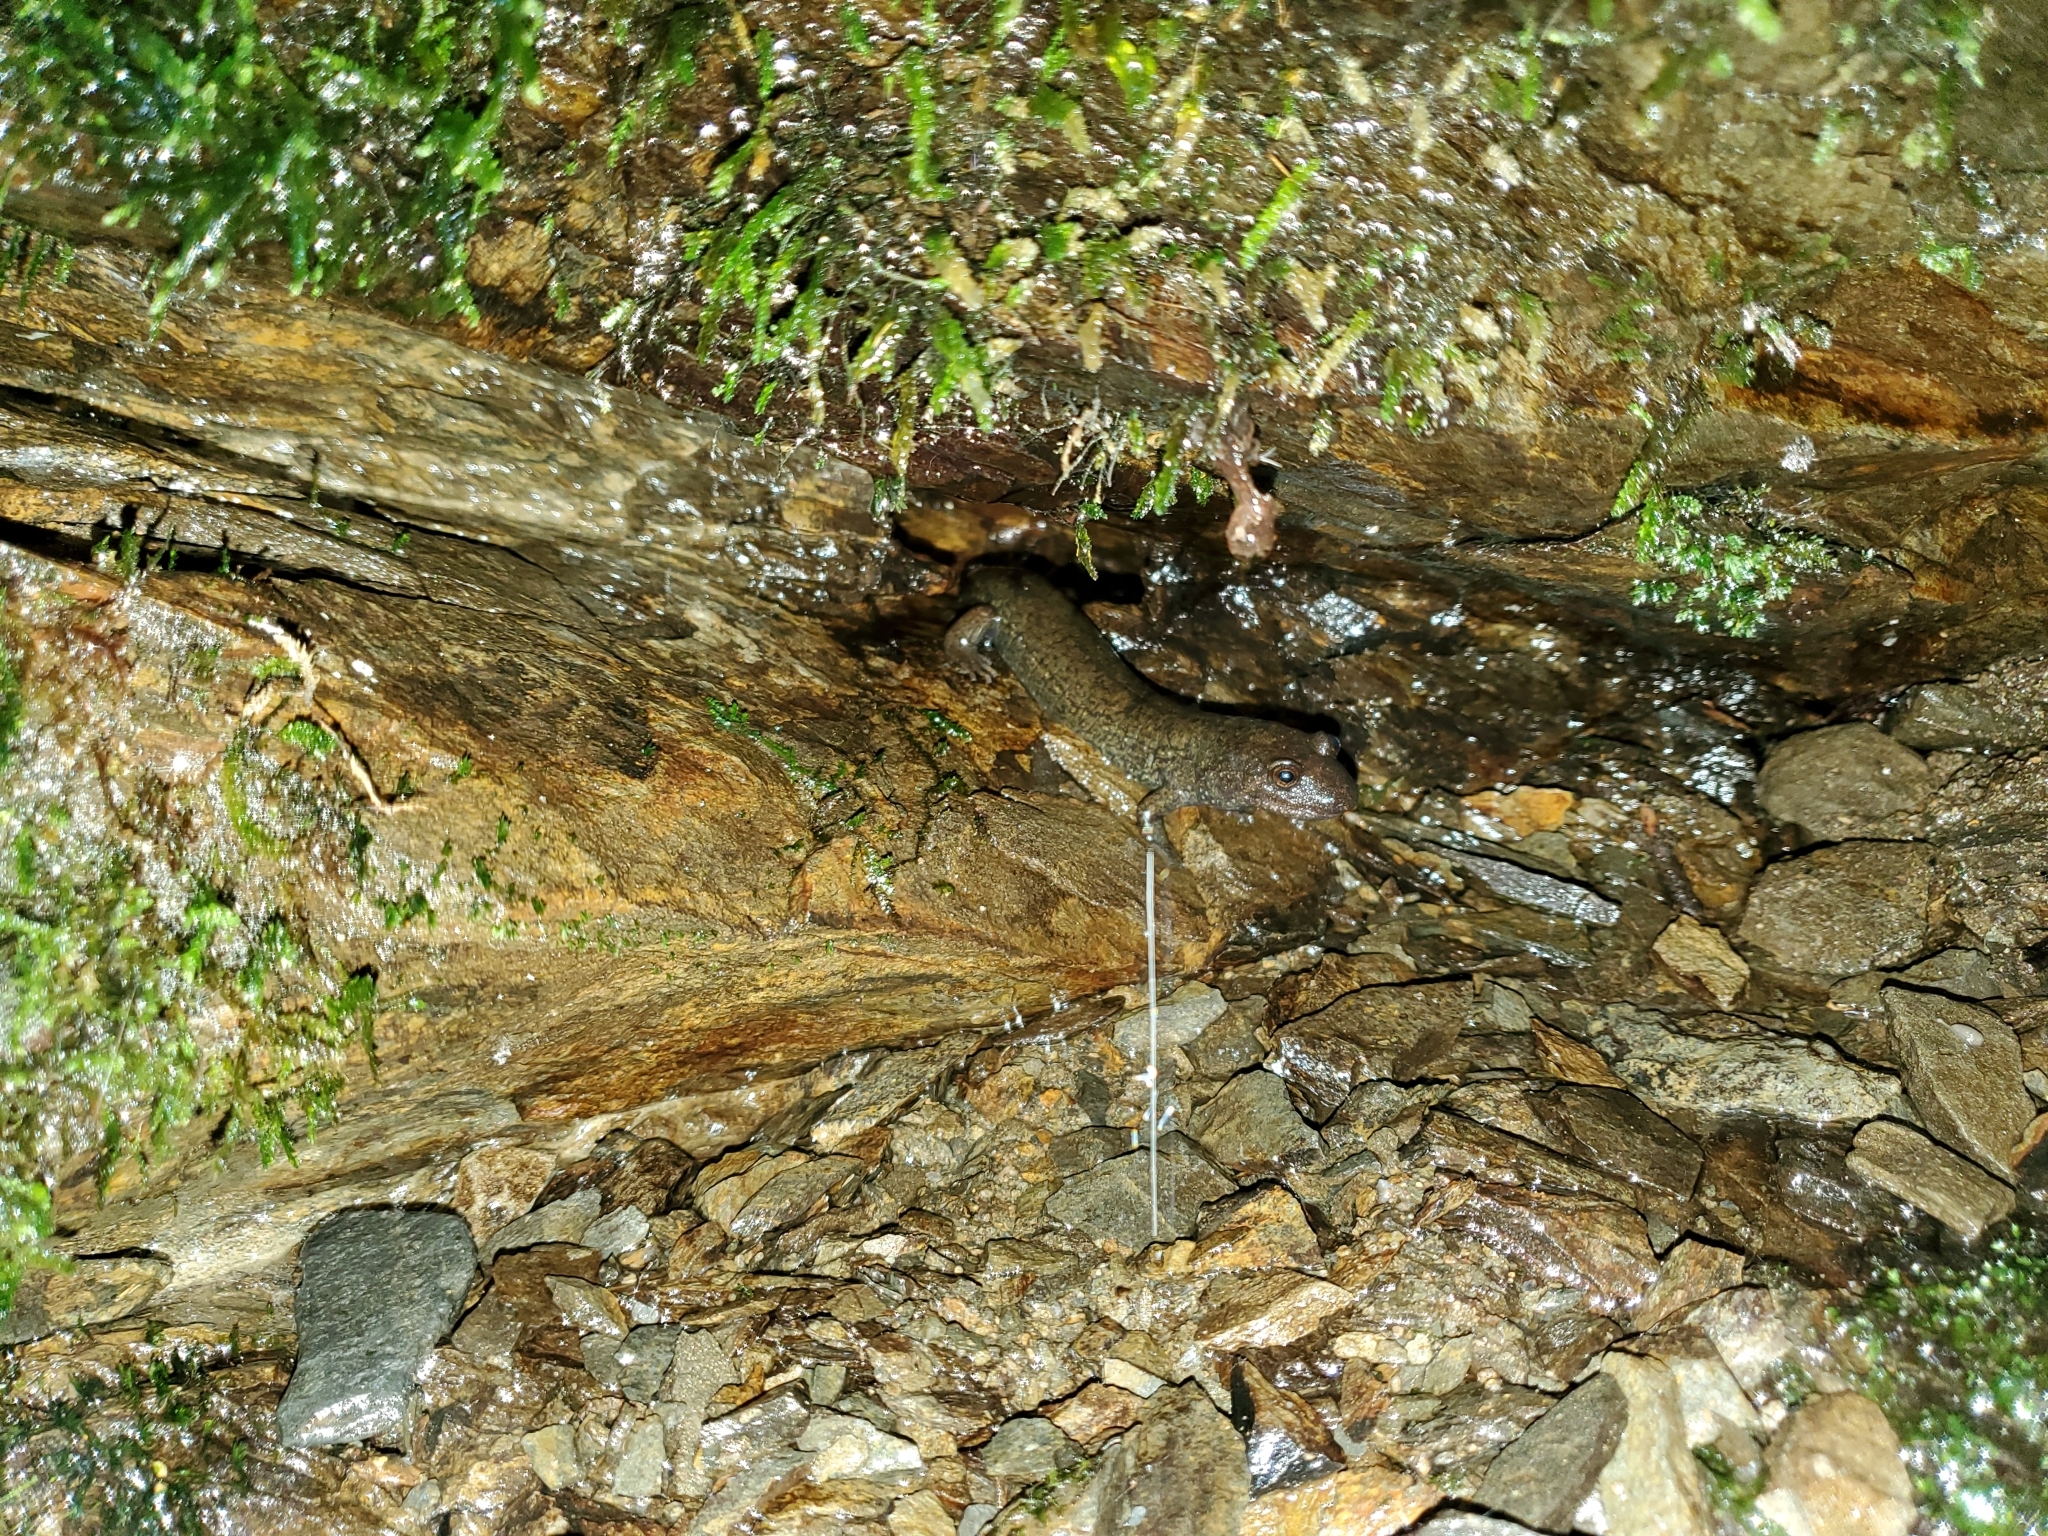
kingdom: Animalia
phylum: Chordata
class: Amphibia
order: Caudata
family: Plethodontidae
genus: Desmognathus
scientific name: Desmognathus
